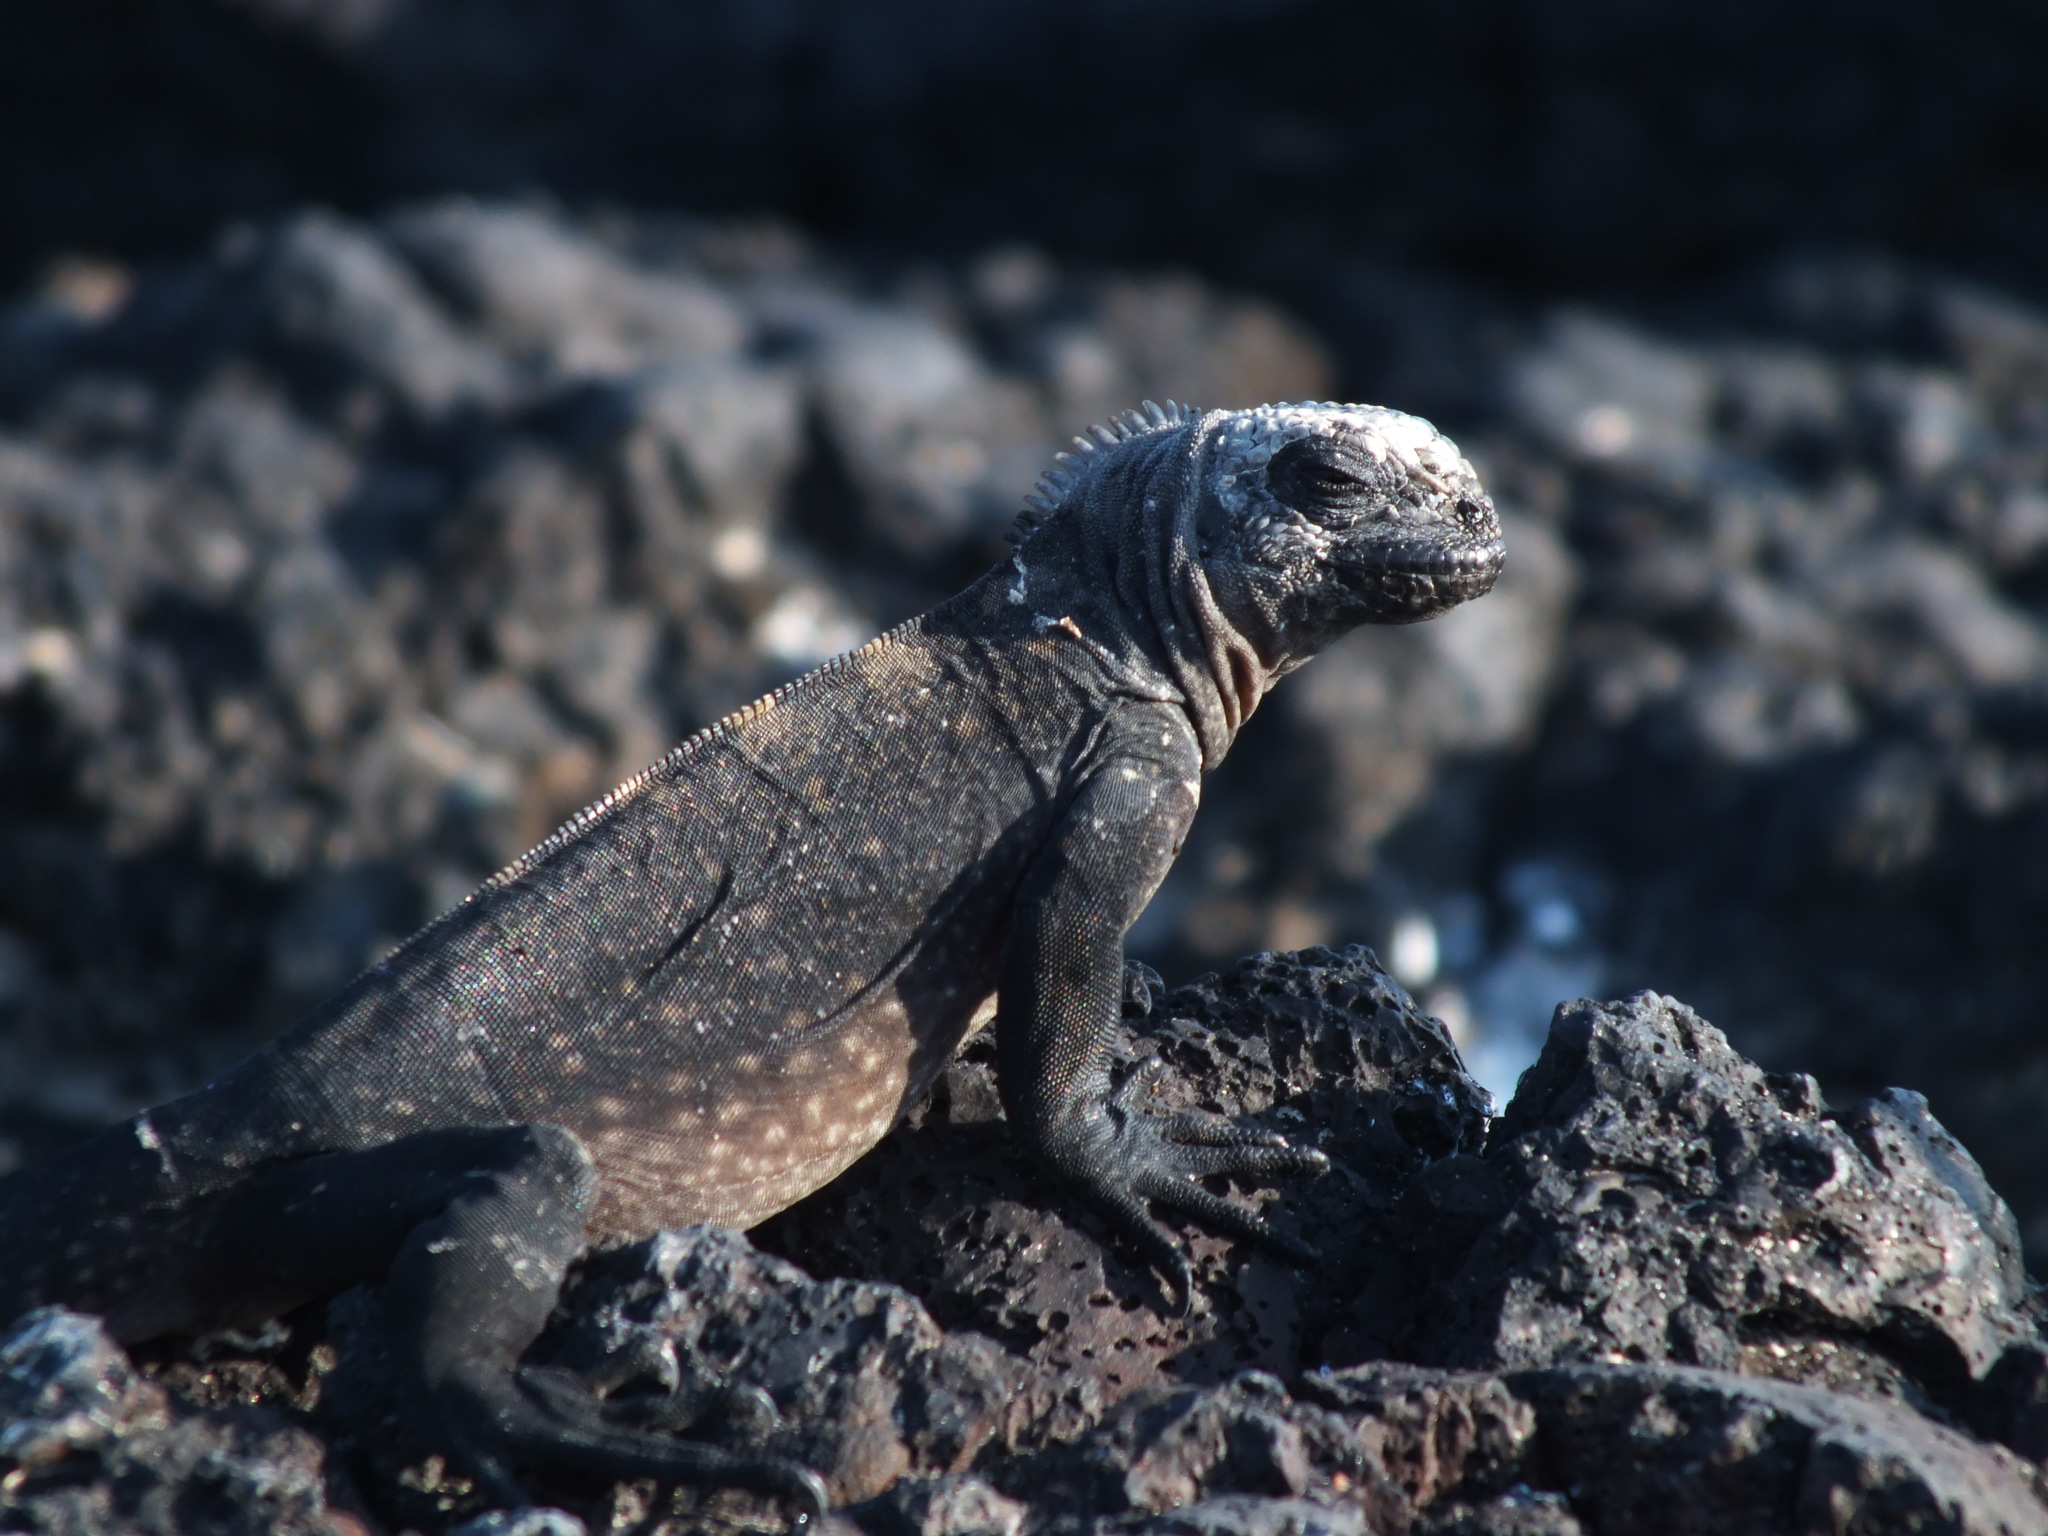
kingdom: Animalia
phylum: Chordata
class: Squamata
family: Iguanidae
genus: Amblyrhynchus
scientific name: Amblyrhynchus cristatus
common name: Marine iguana
